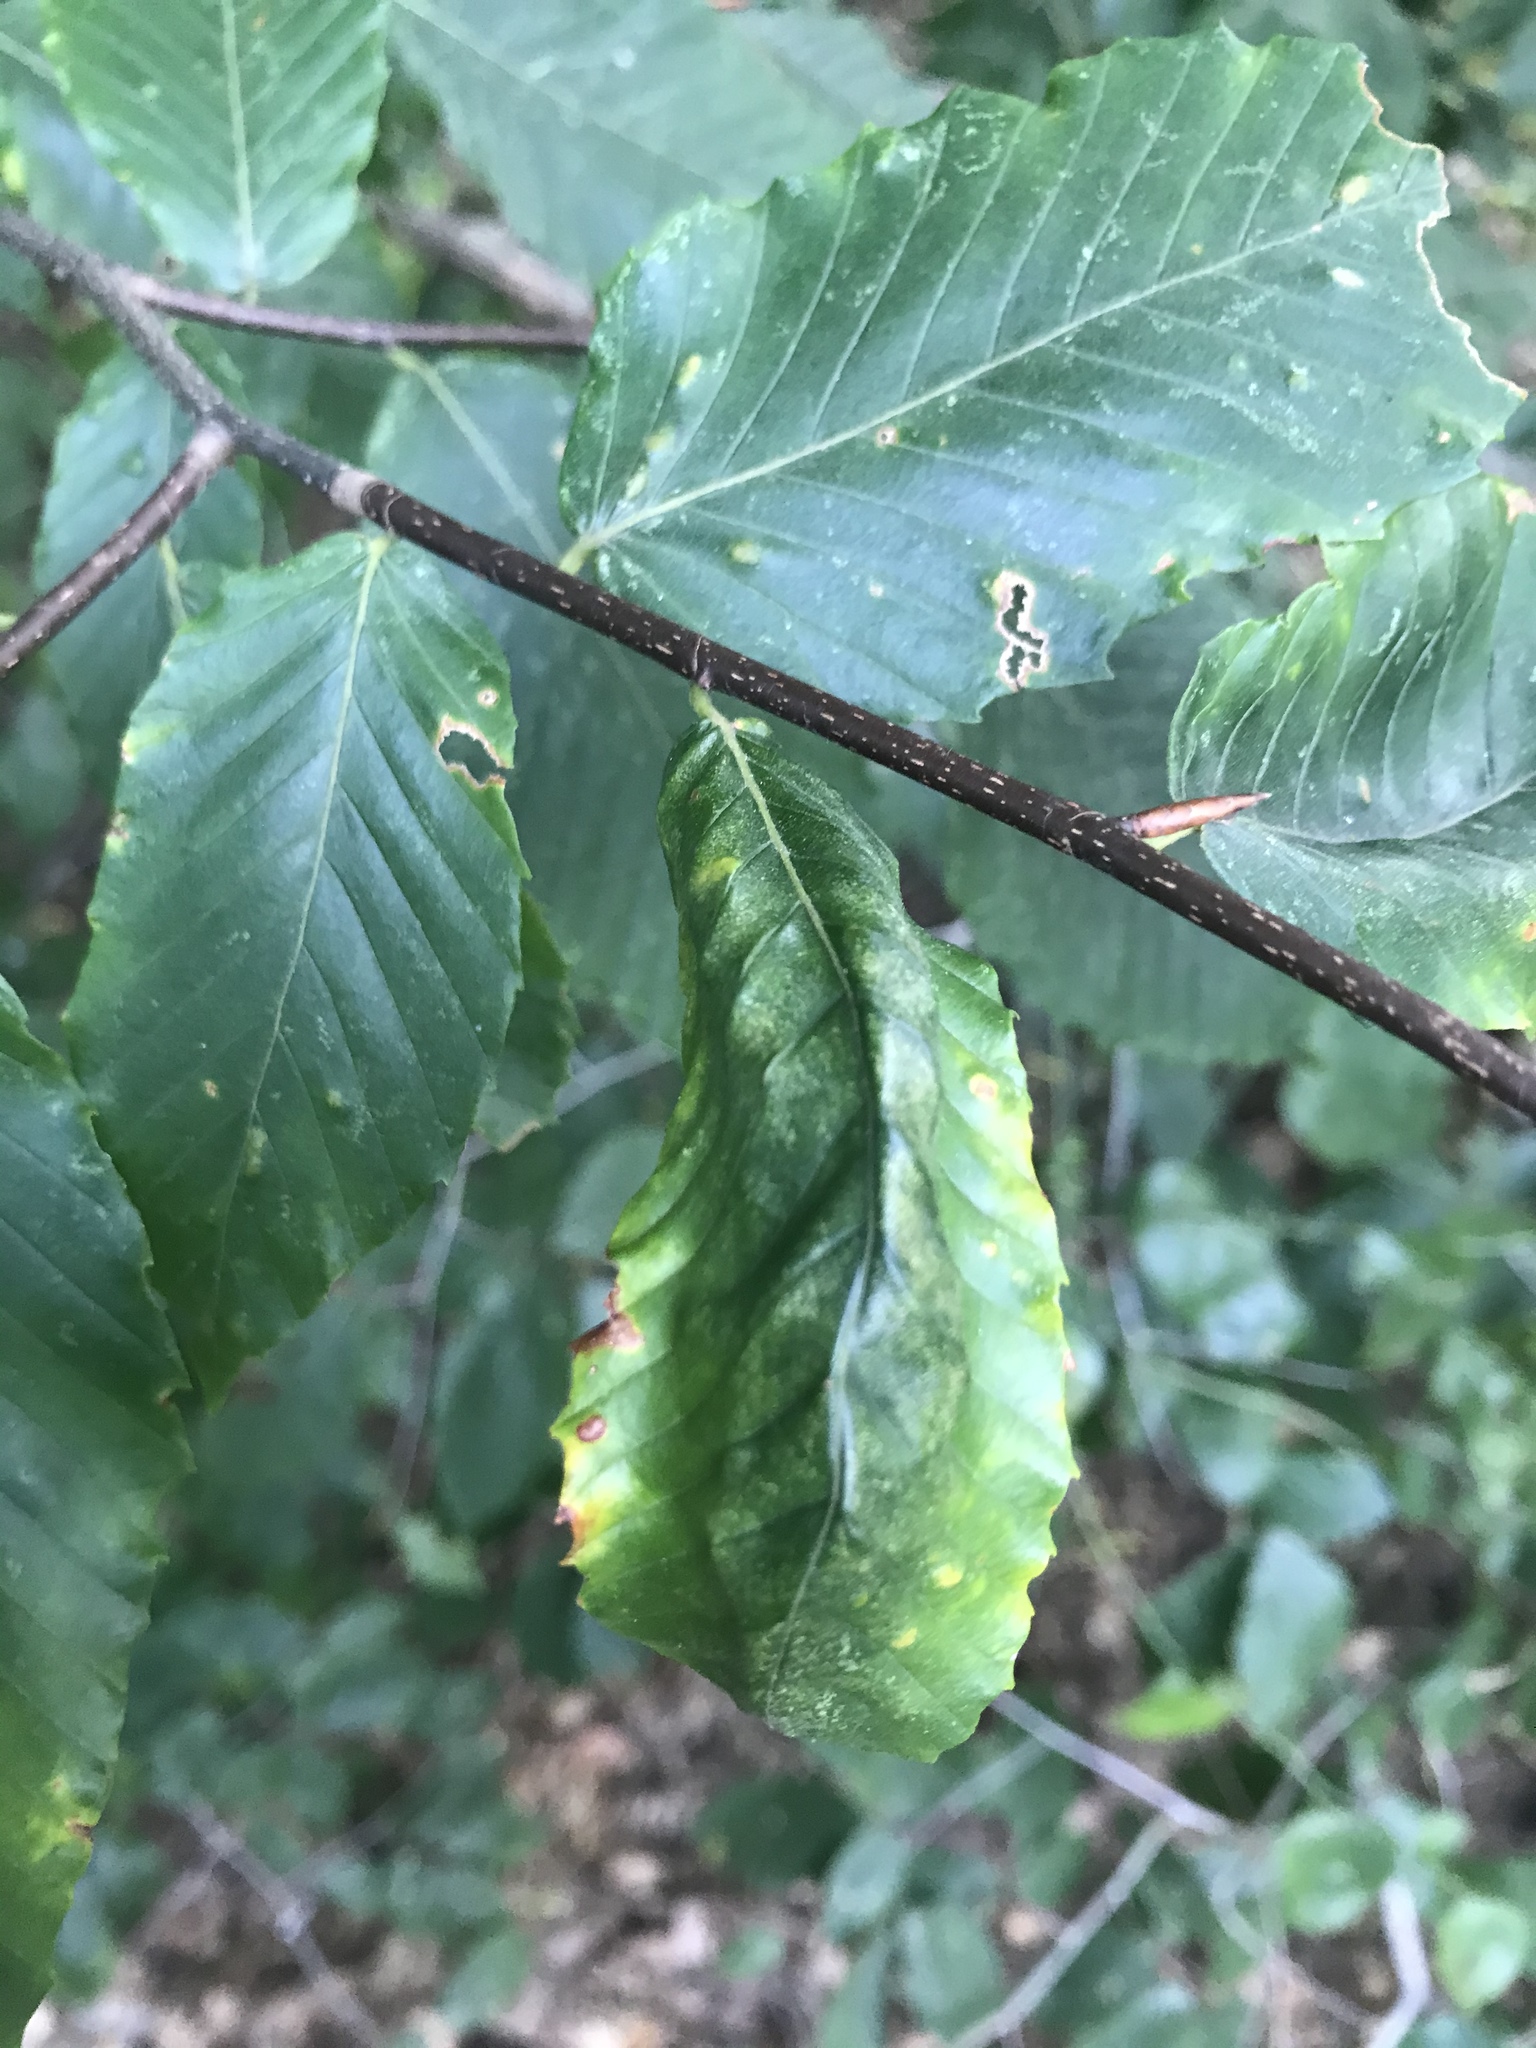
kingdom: Plantae
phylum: Tracheophyta
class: Magnoliopsida
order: Fagales
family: Fagaceae
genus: Fagus
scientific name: Fagus grandifolia
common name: American beech
